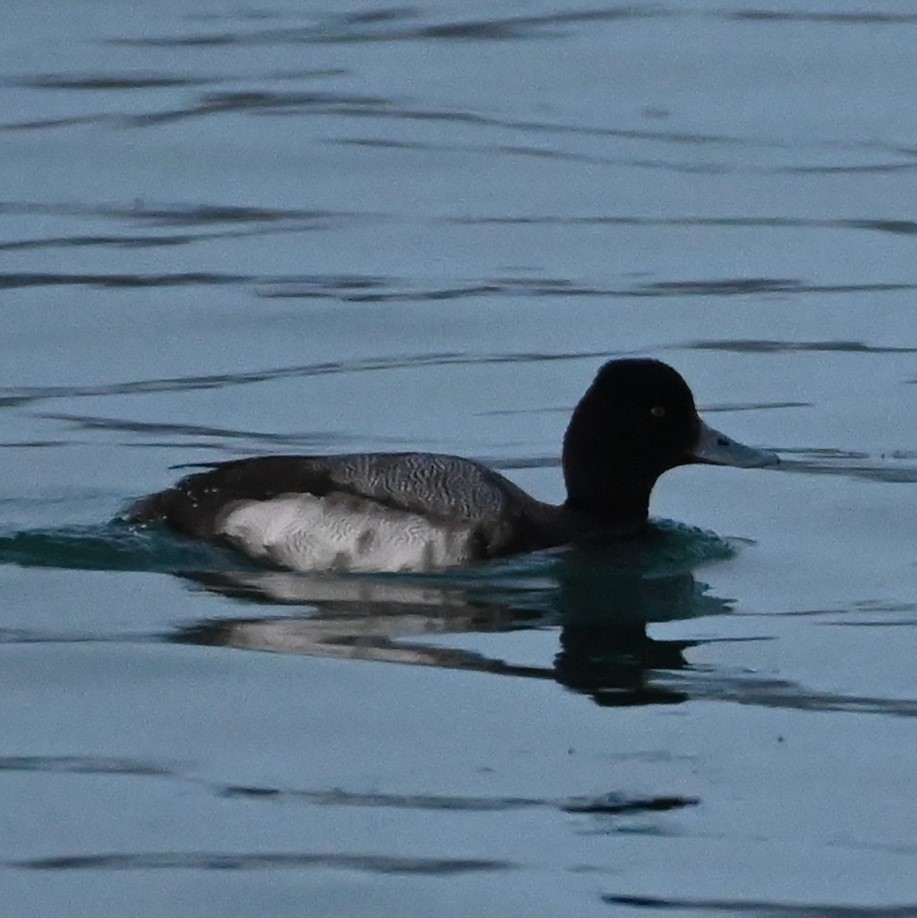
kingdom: Animalia
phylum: Chordata
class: Aves
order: Anseriformes
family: Anatidae
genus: Aythya
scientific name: Aythya affinis
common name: Lesser scaup
